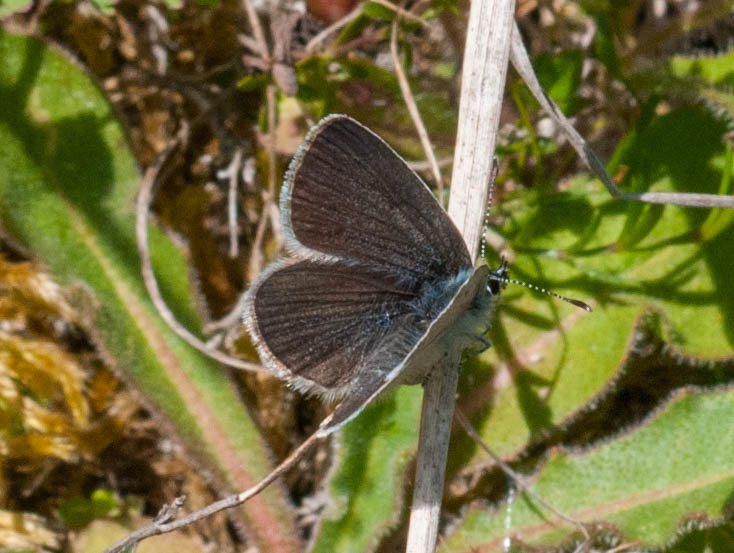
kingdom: Animalia
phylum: Arthropoda
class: Insecta
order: Lepidoptera
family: Lycaenidae
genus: Cupido
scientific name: Cupido minimus
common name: Small blue
